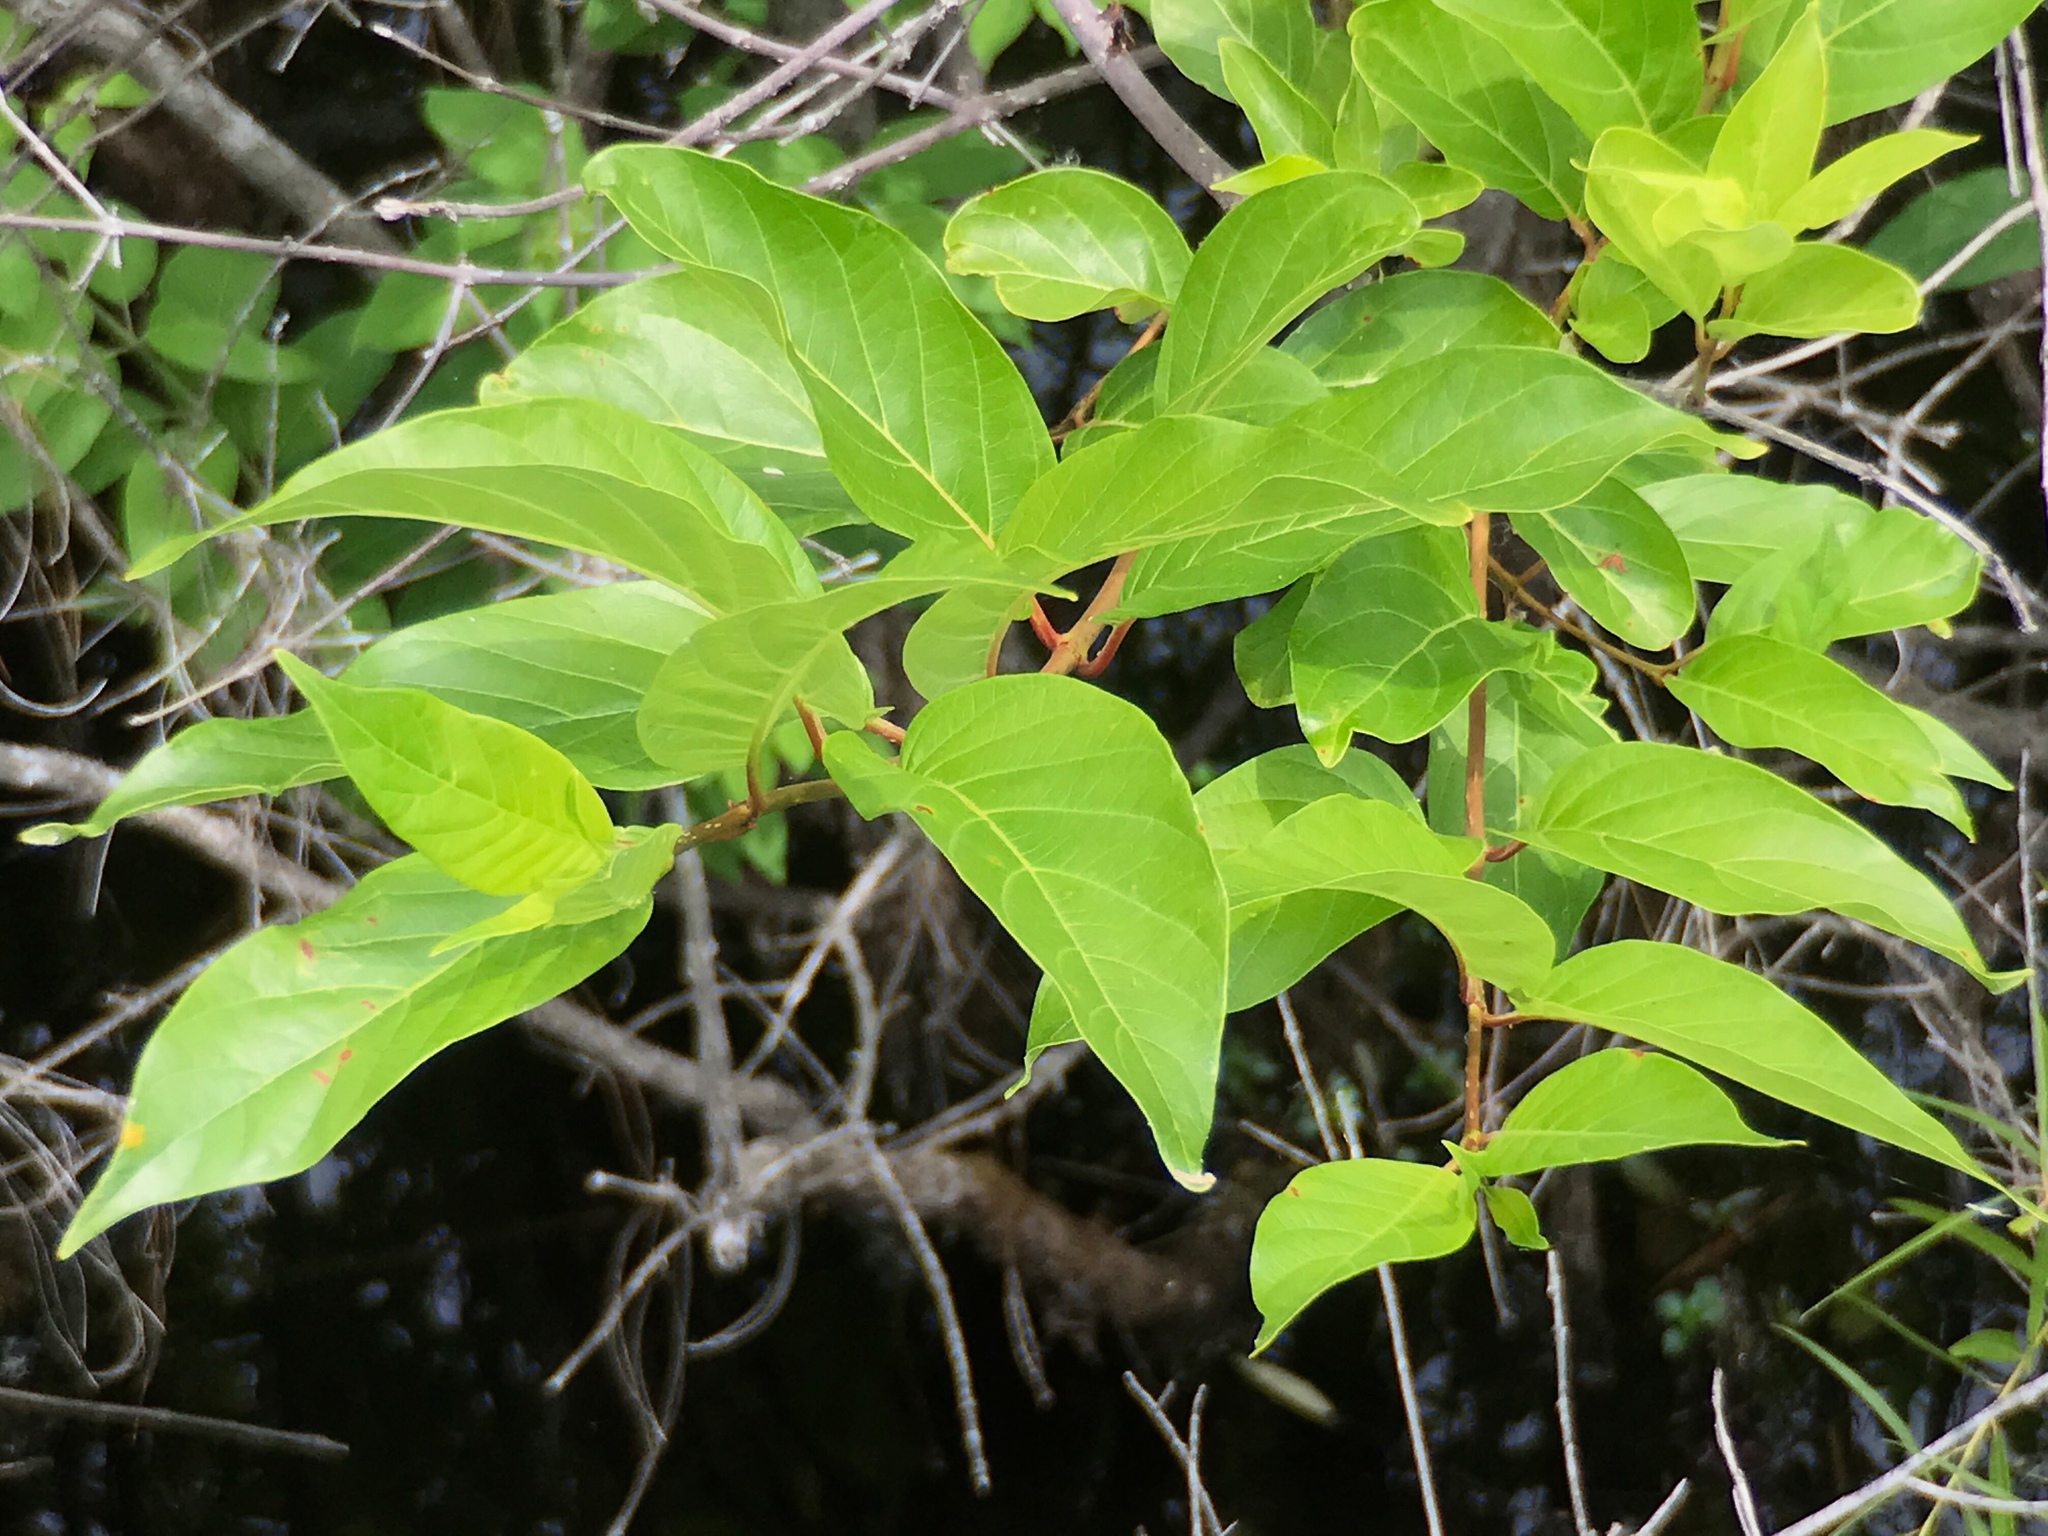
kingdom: Plantae
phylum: Tracheophyta
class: Magnoliopsida
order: Gentianales
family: Rubiaceae
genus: Cephalanthus
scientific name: Cephalanthus occidentalis
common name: Button-willow
